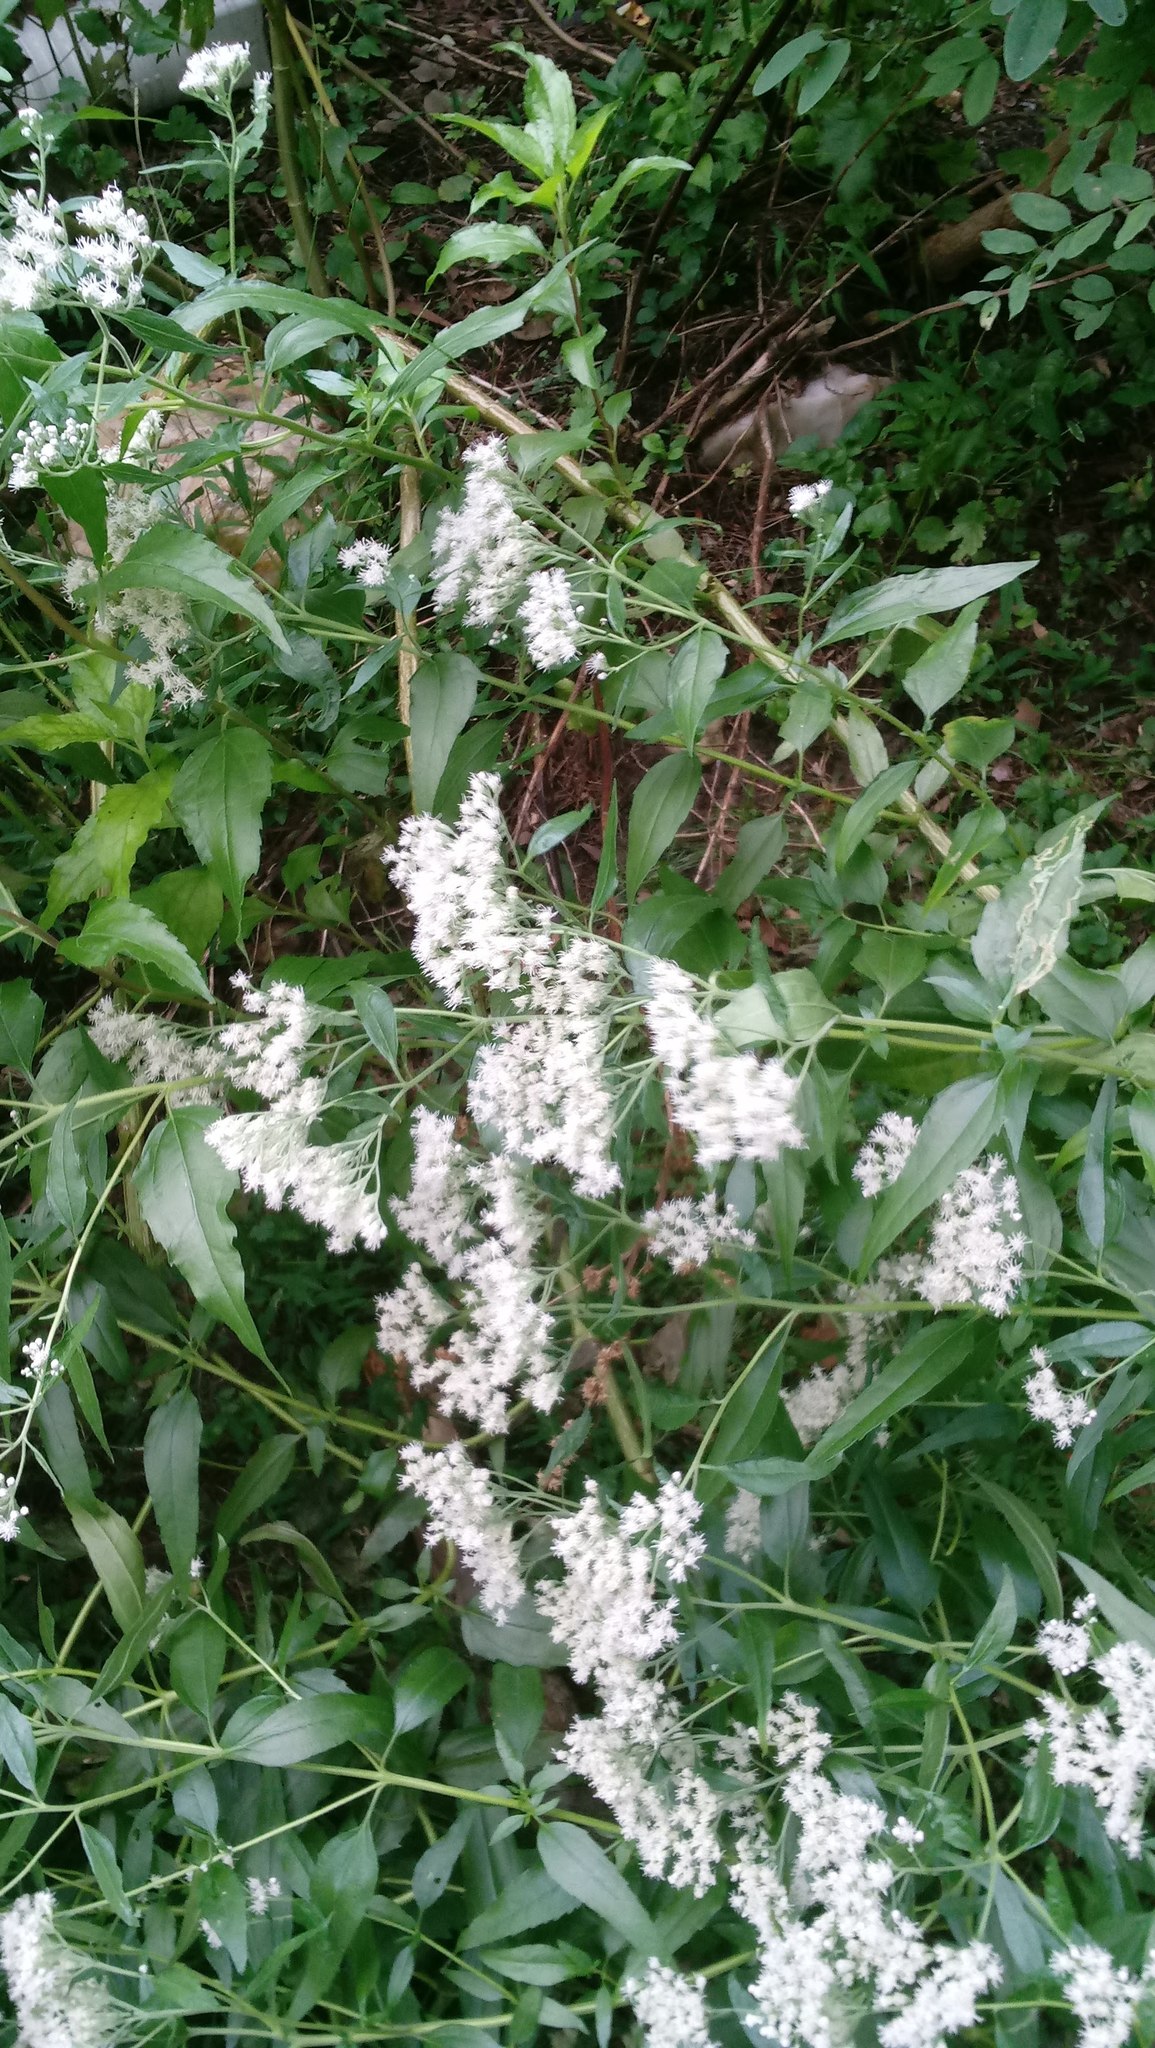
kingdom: Plantae
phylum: Tracheophyta
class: Magnoliopsida
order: Asterales
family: Asteraceae
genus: Eupatorium
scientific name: Eupatorium serotinum
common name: Late boneset
